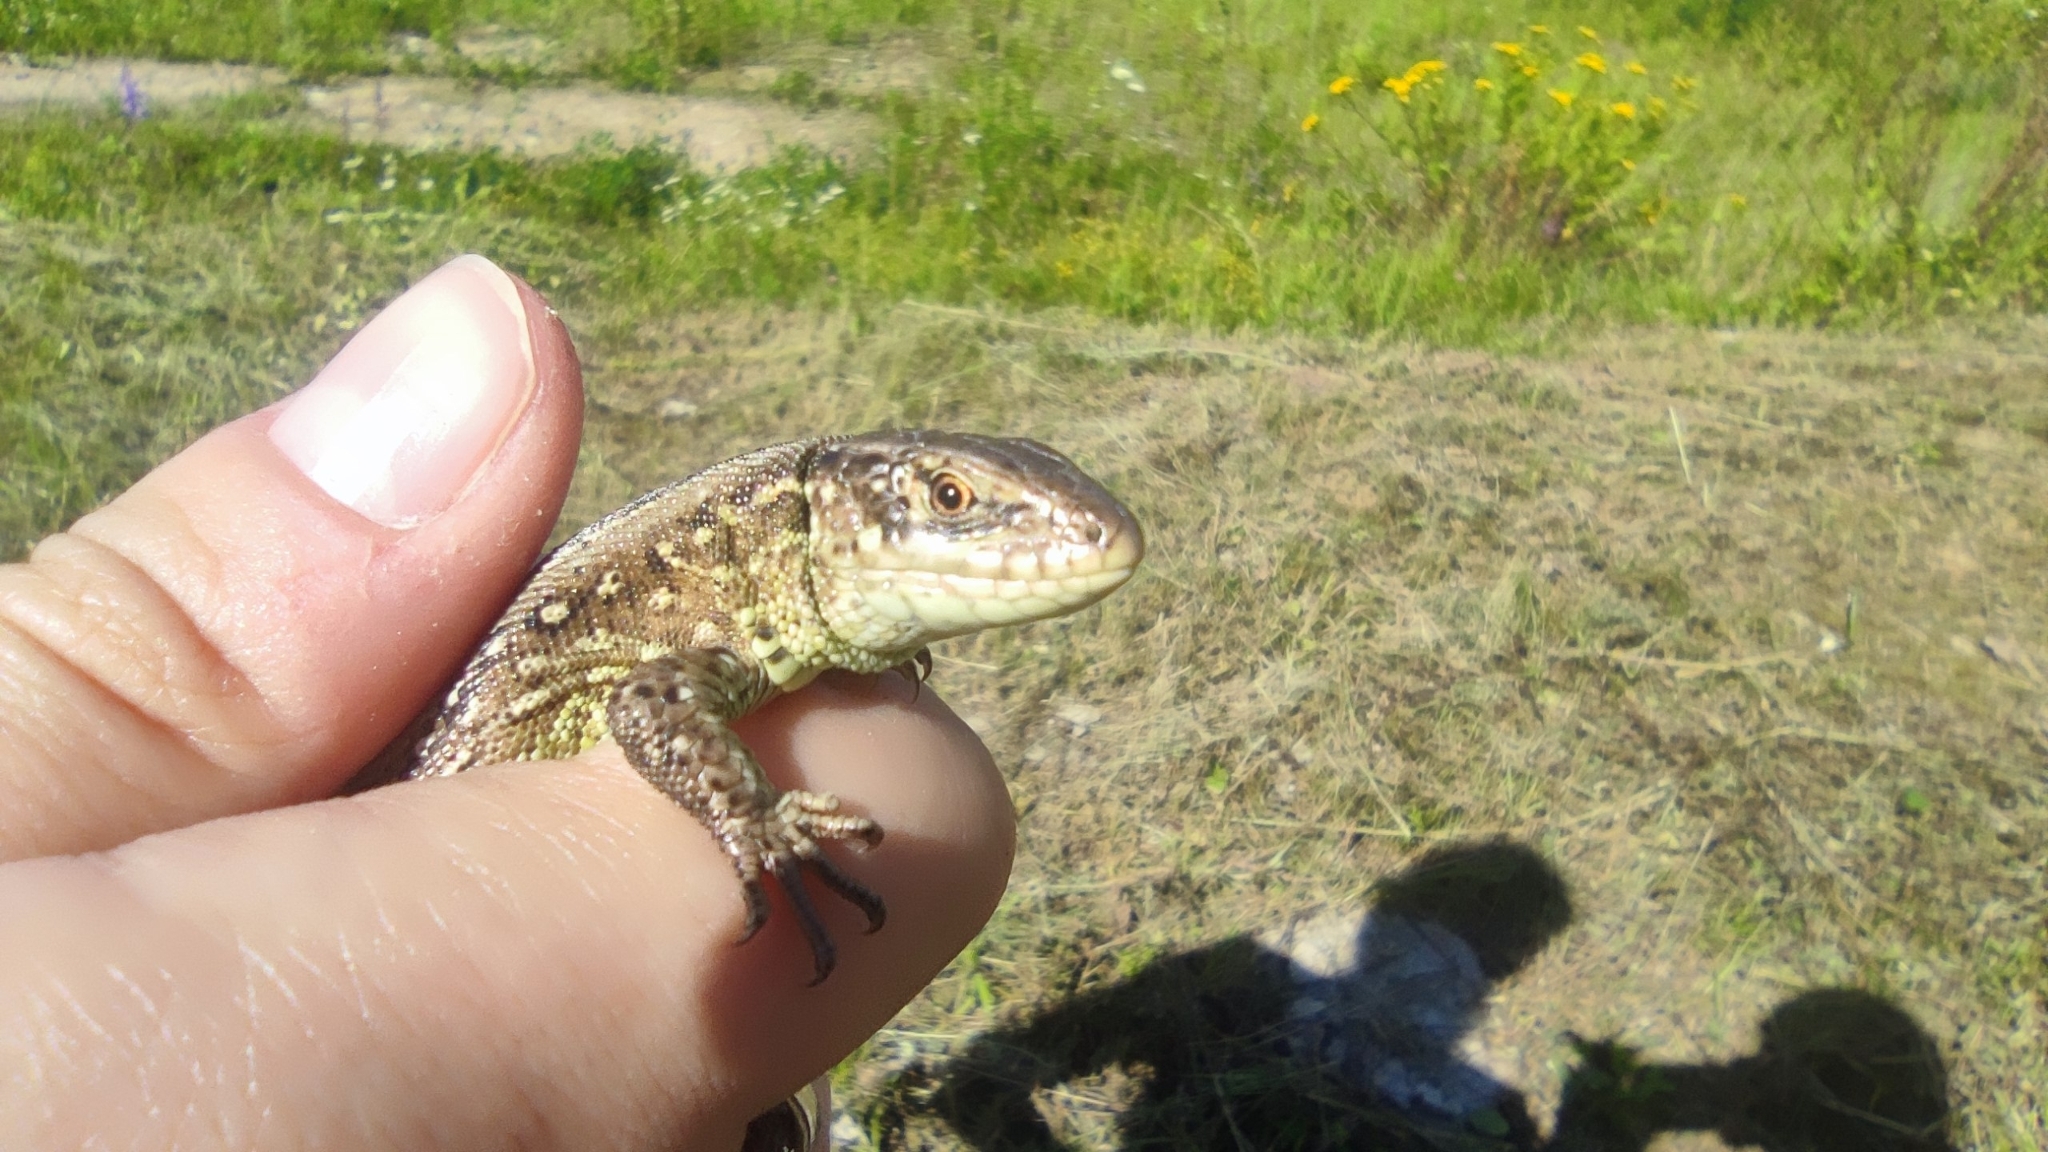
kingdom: Animalia
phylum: Chordata
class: Squamata
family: Lacertidae
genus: Lacerta
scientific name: Lacerta agilis
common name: Sand lizard
